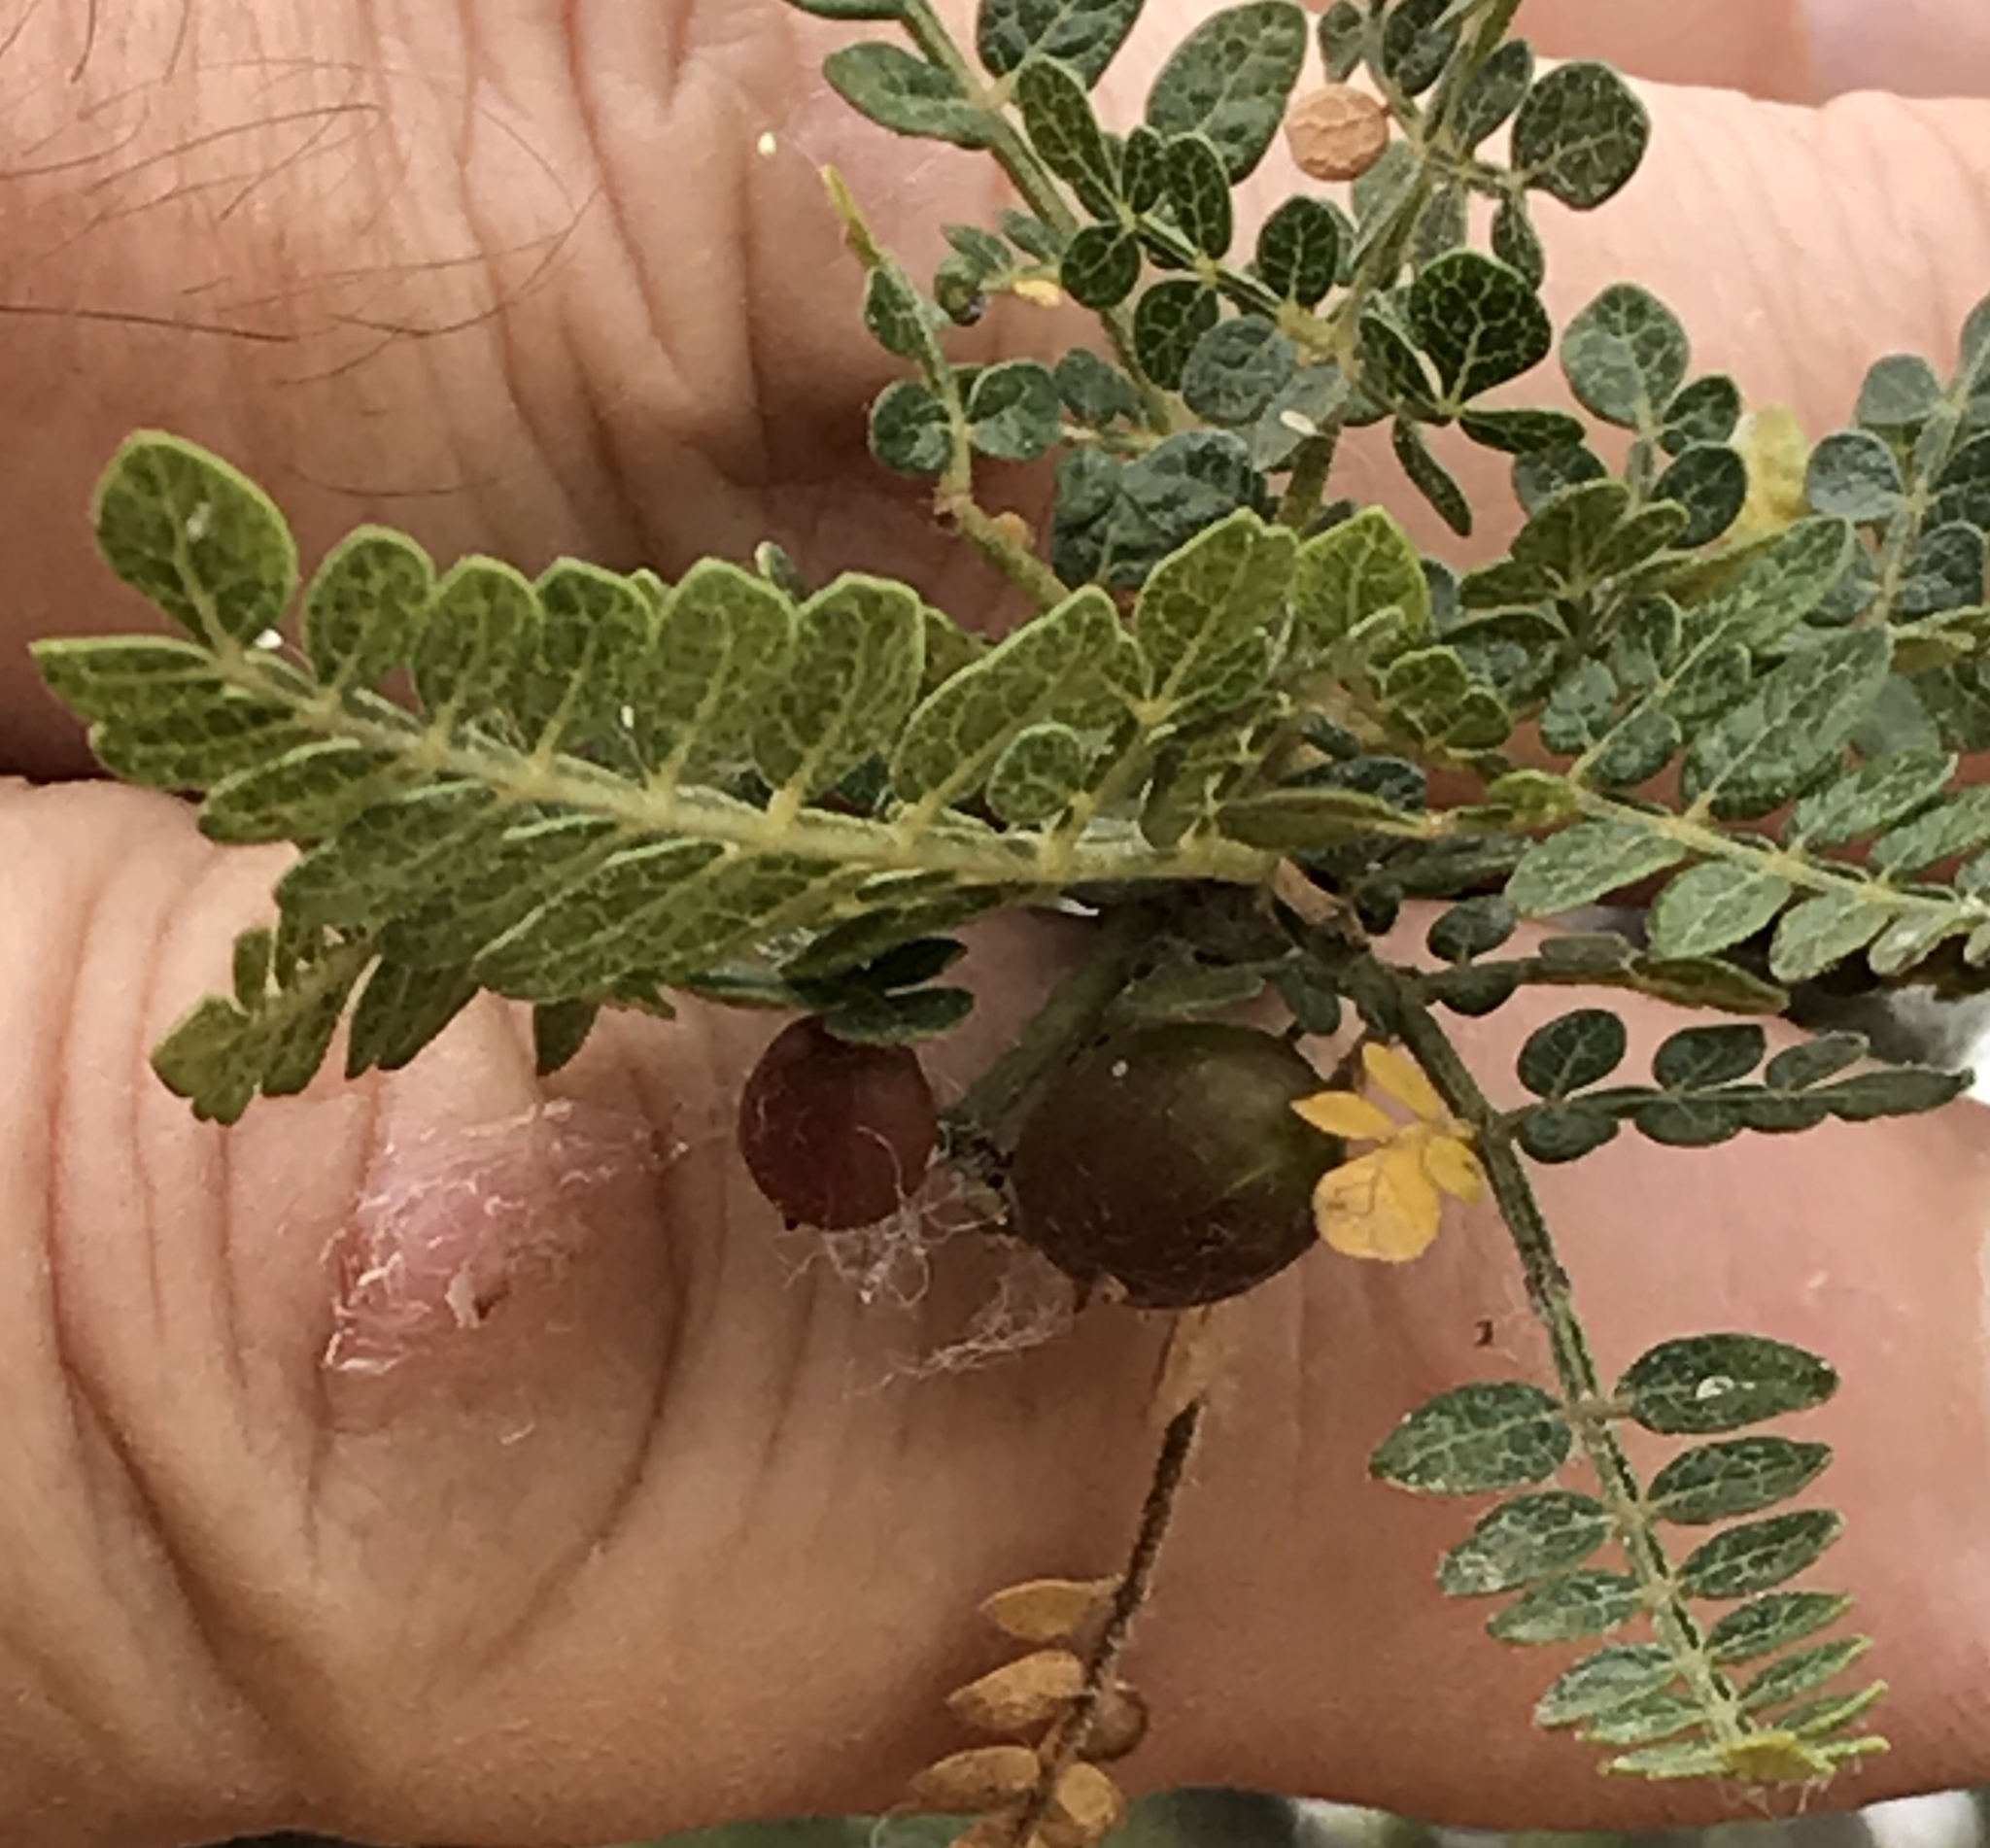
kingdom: Plantae
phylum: Tracheophyta
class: Magnoliopsida
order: Sapindales
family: Burseraceae
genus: Bursera
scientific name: Bursera bipinnata
